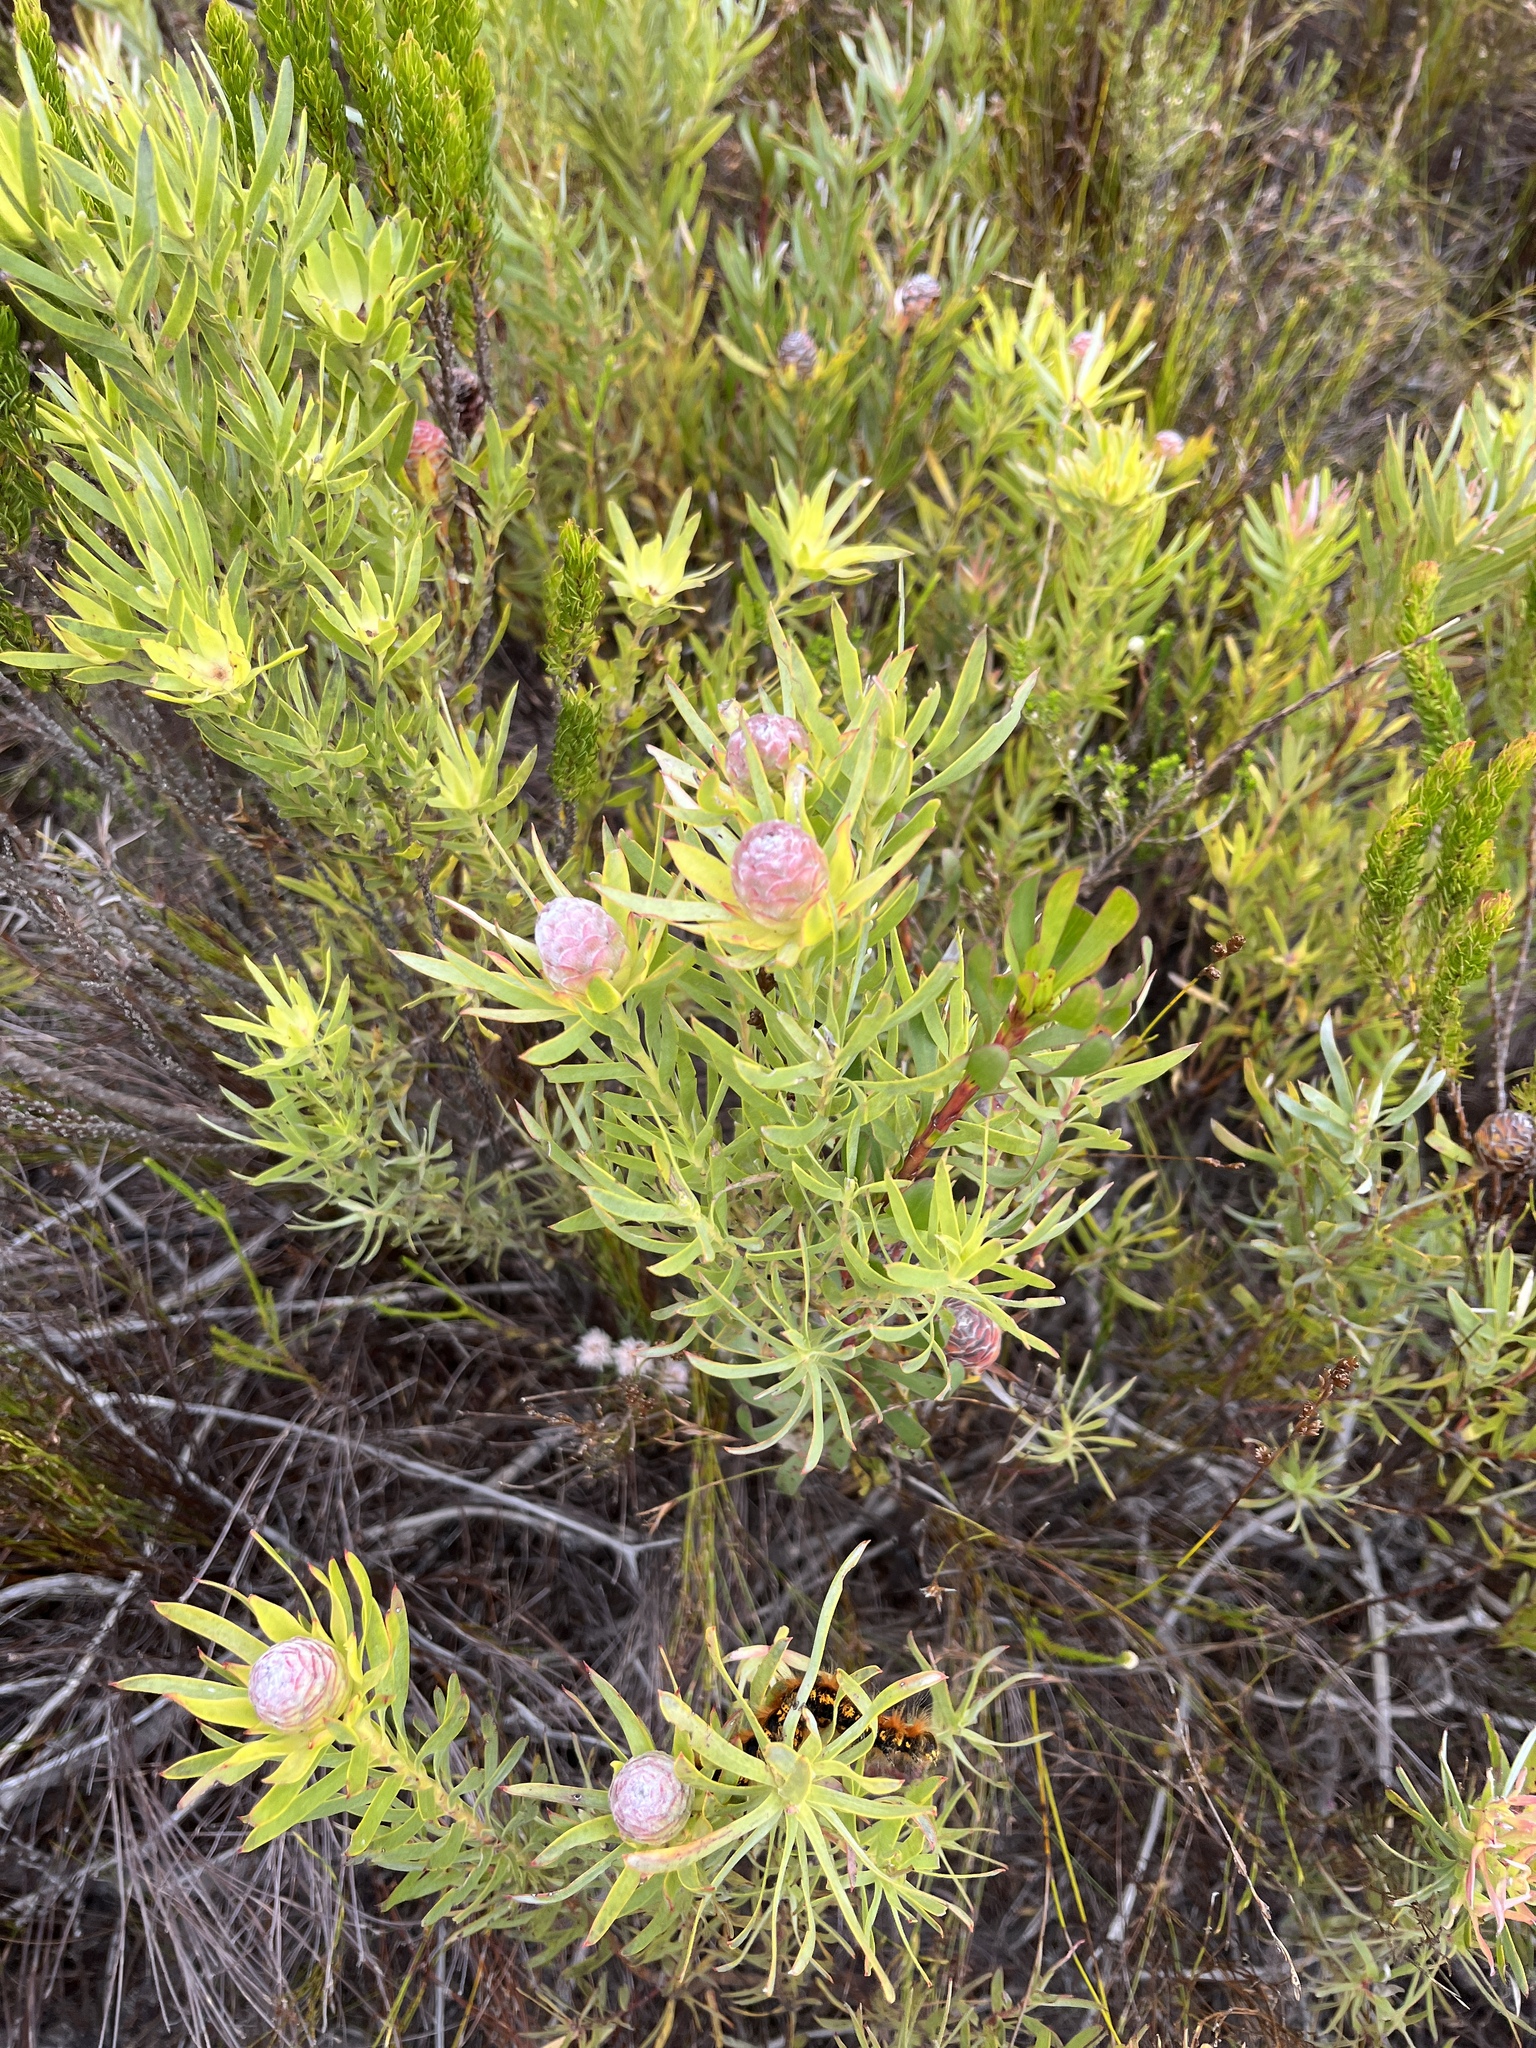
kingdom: Plantae
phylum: Tracheophyta
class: Magnoliopsida
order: Proteales
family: Proteaceae
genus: Leucadendron
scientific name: Leucadendron xanthoconus
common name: Sickle-leaf conebush
